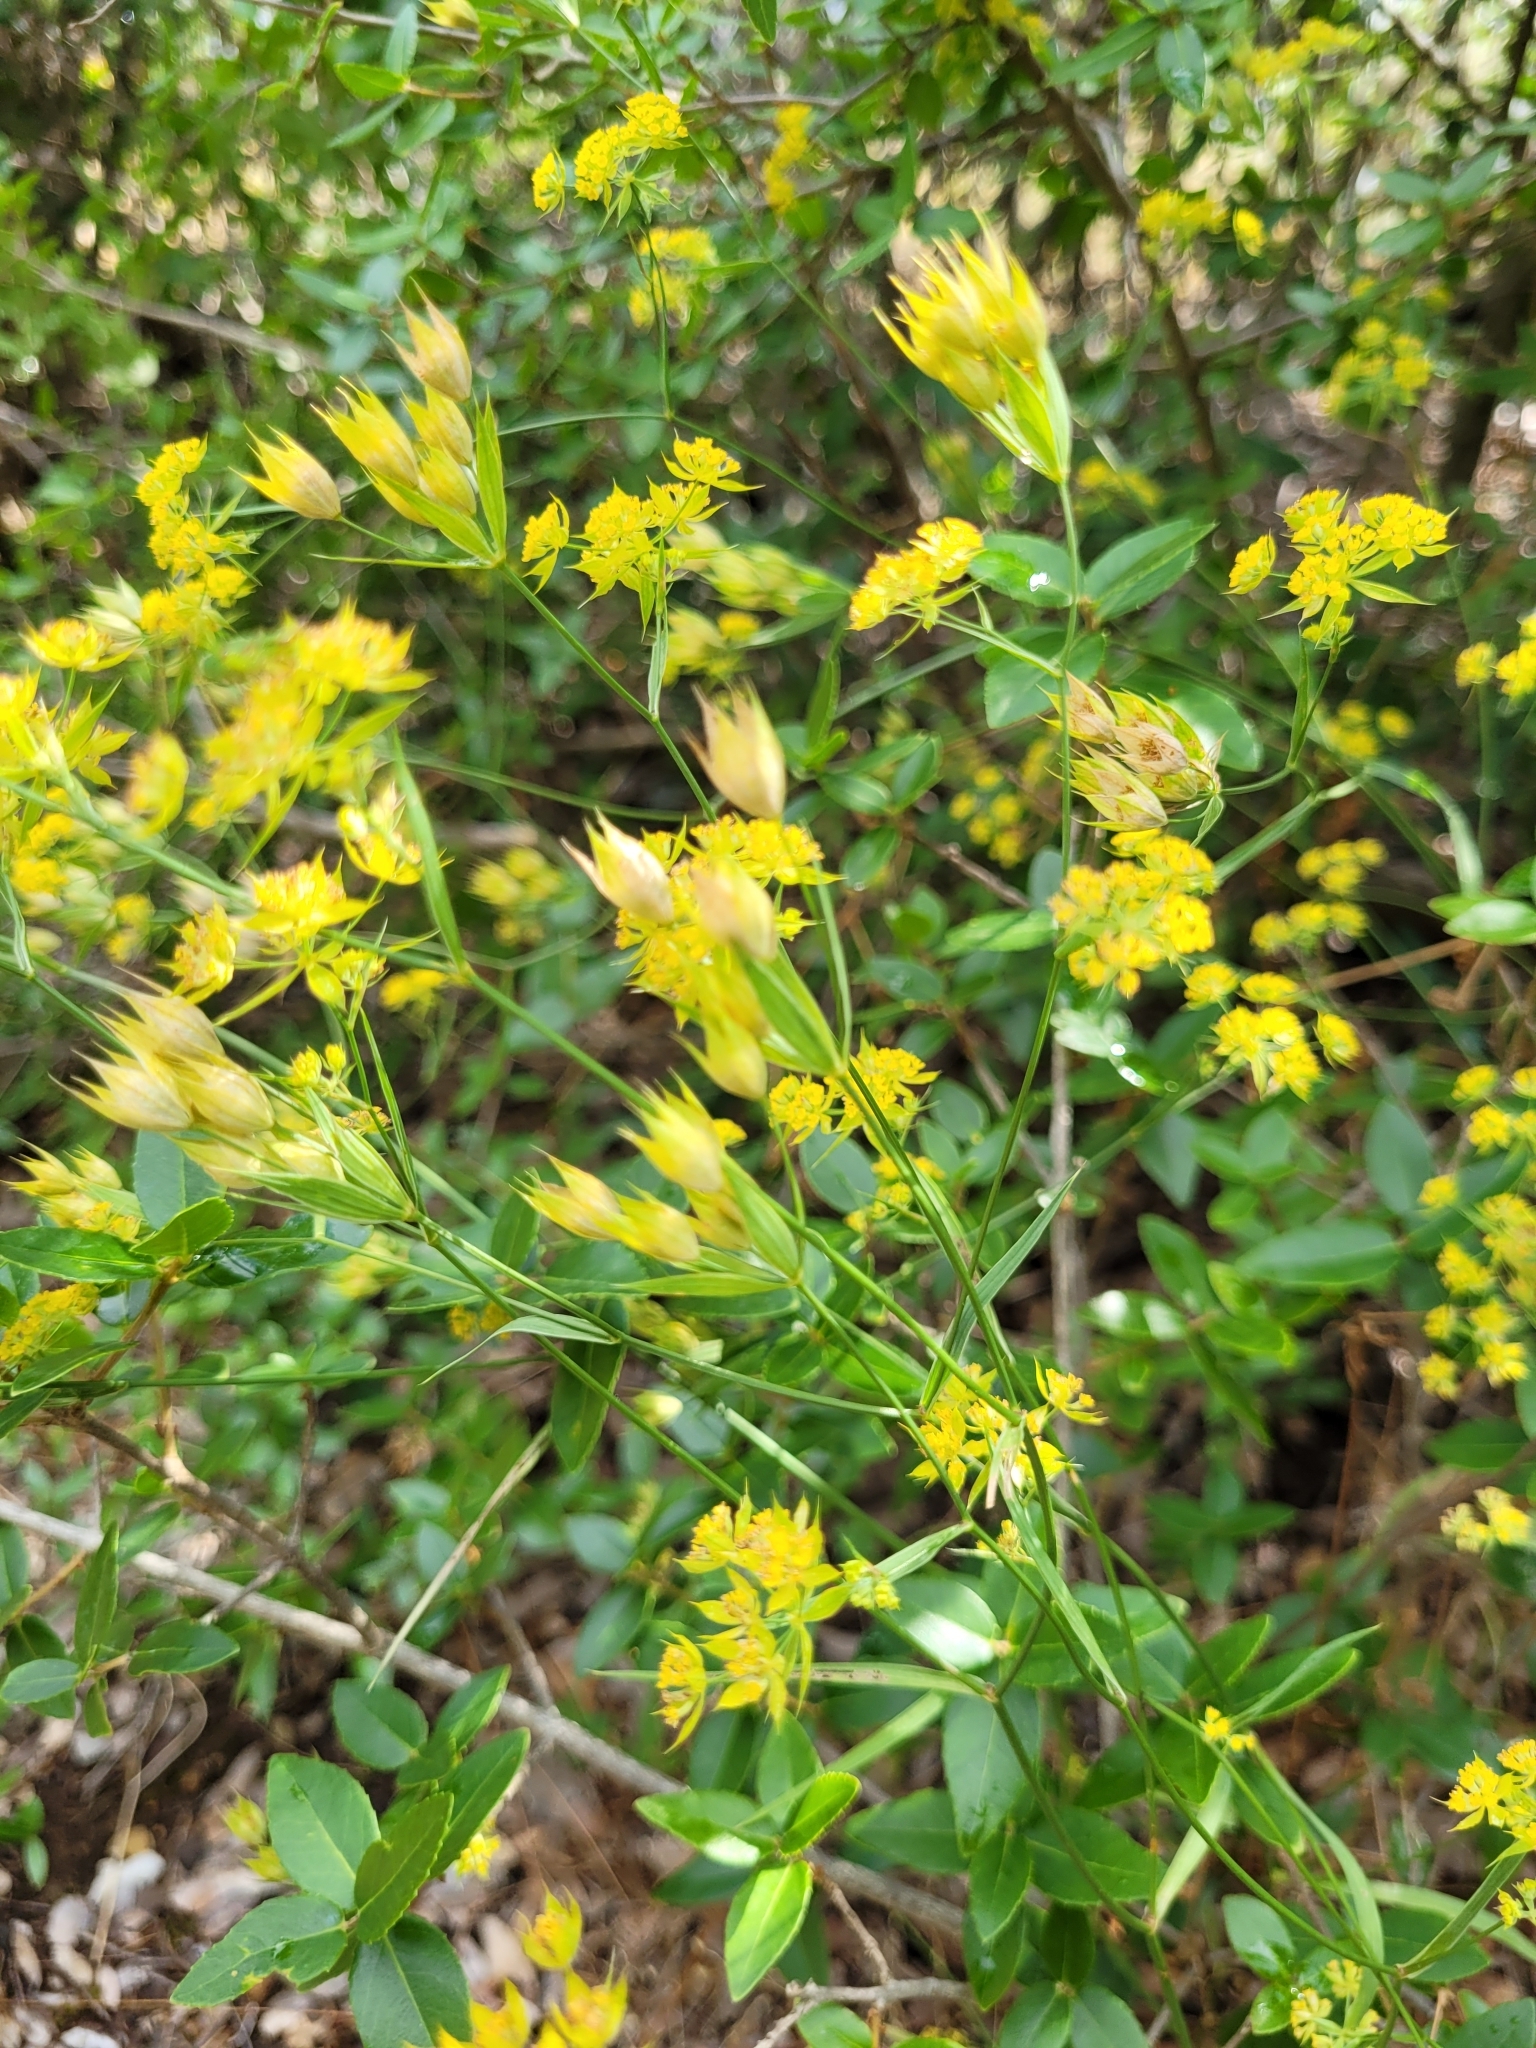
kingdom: Plantae
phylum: Tracheophyta
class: Magnoliopsida
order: Apiales
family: Apiaceae
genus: Bupleurum
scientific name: Bupleurum veronense
